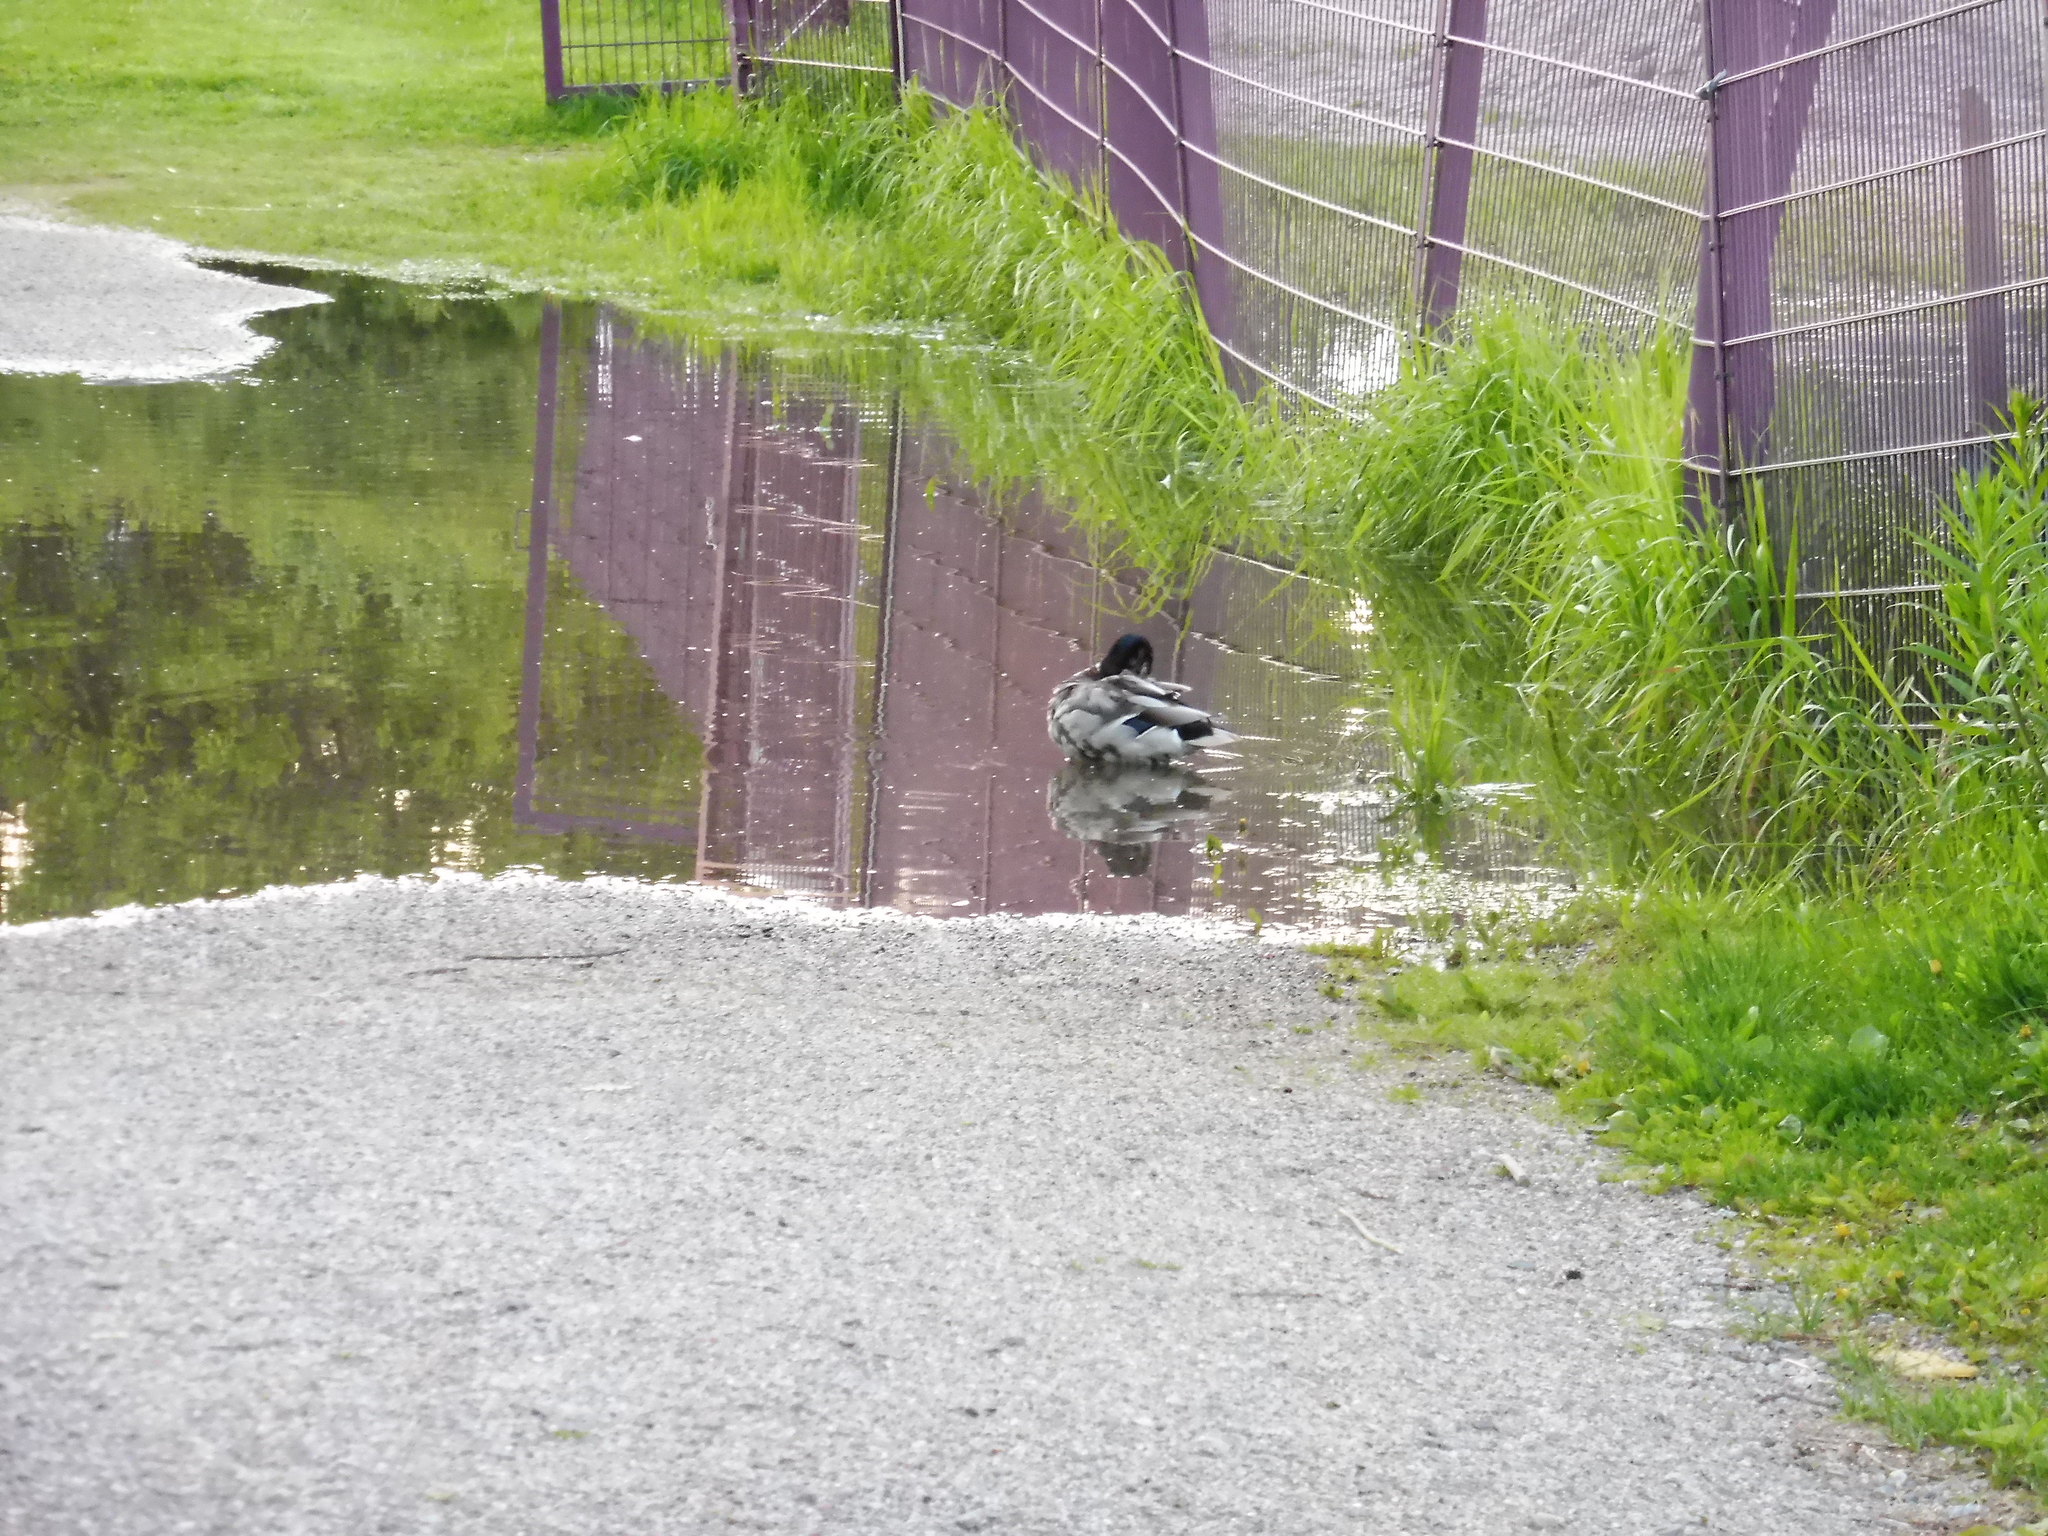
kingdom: Animalia
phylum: Chordata
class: Aves
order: Anseriformes
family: Anatidae
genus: Anas
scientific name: Anas platyrhynchos
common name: Mallard
